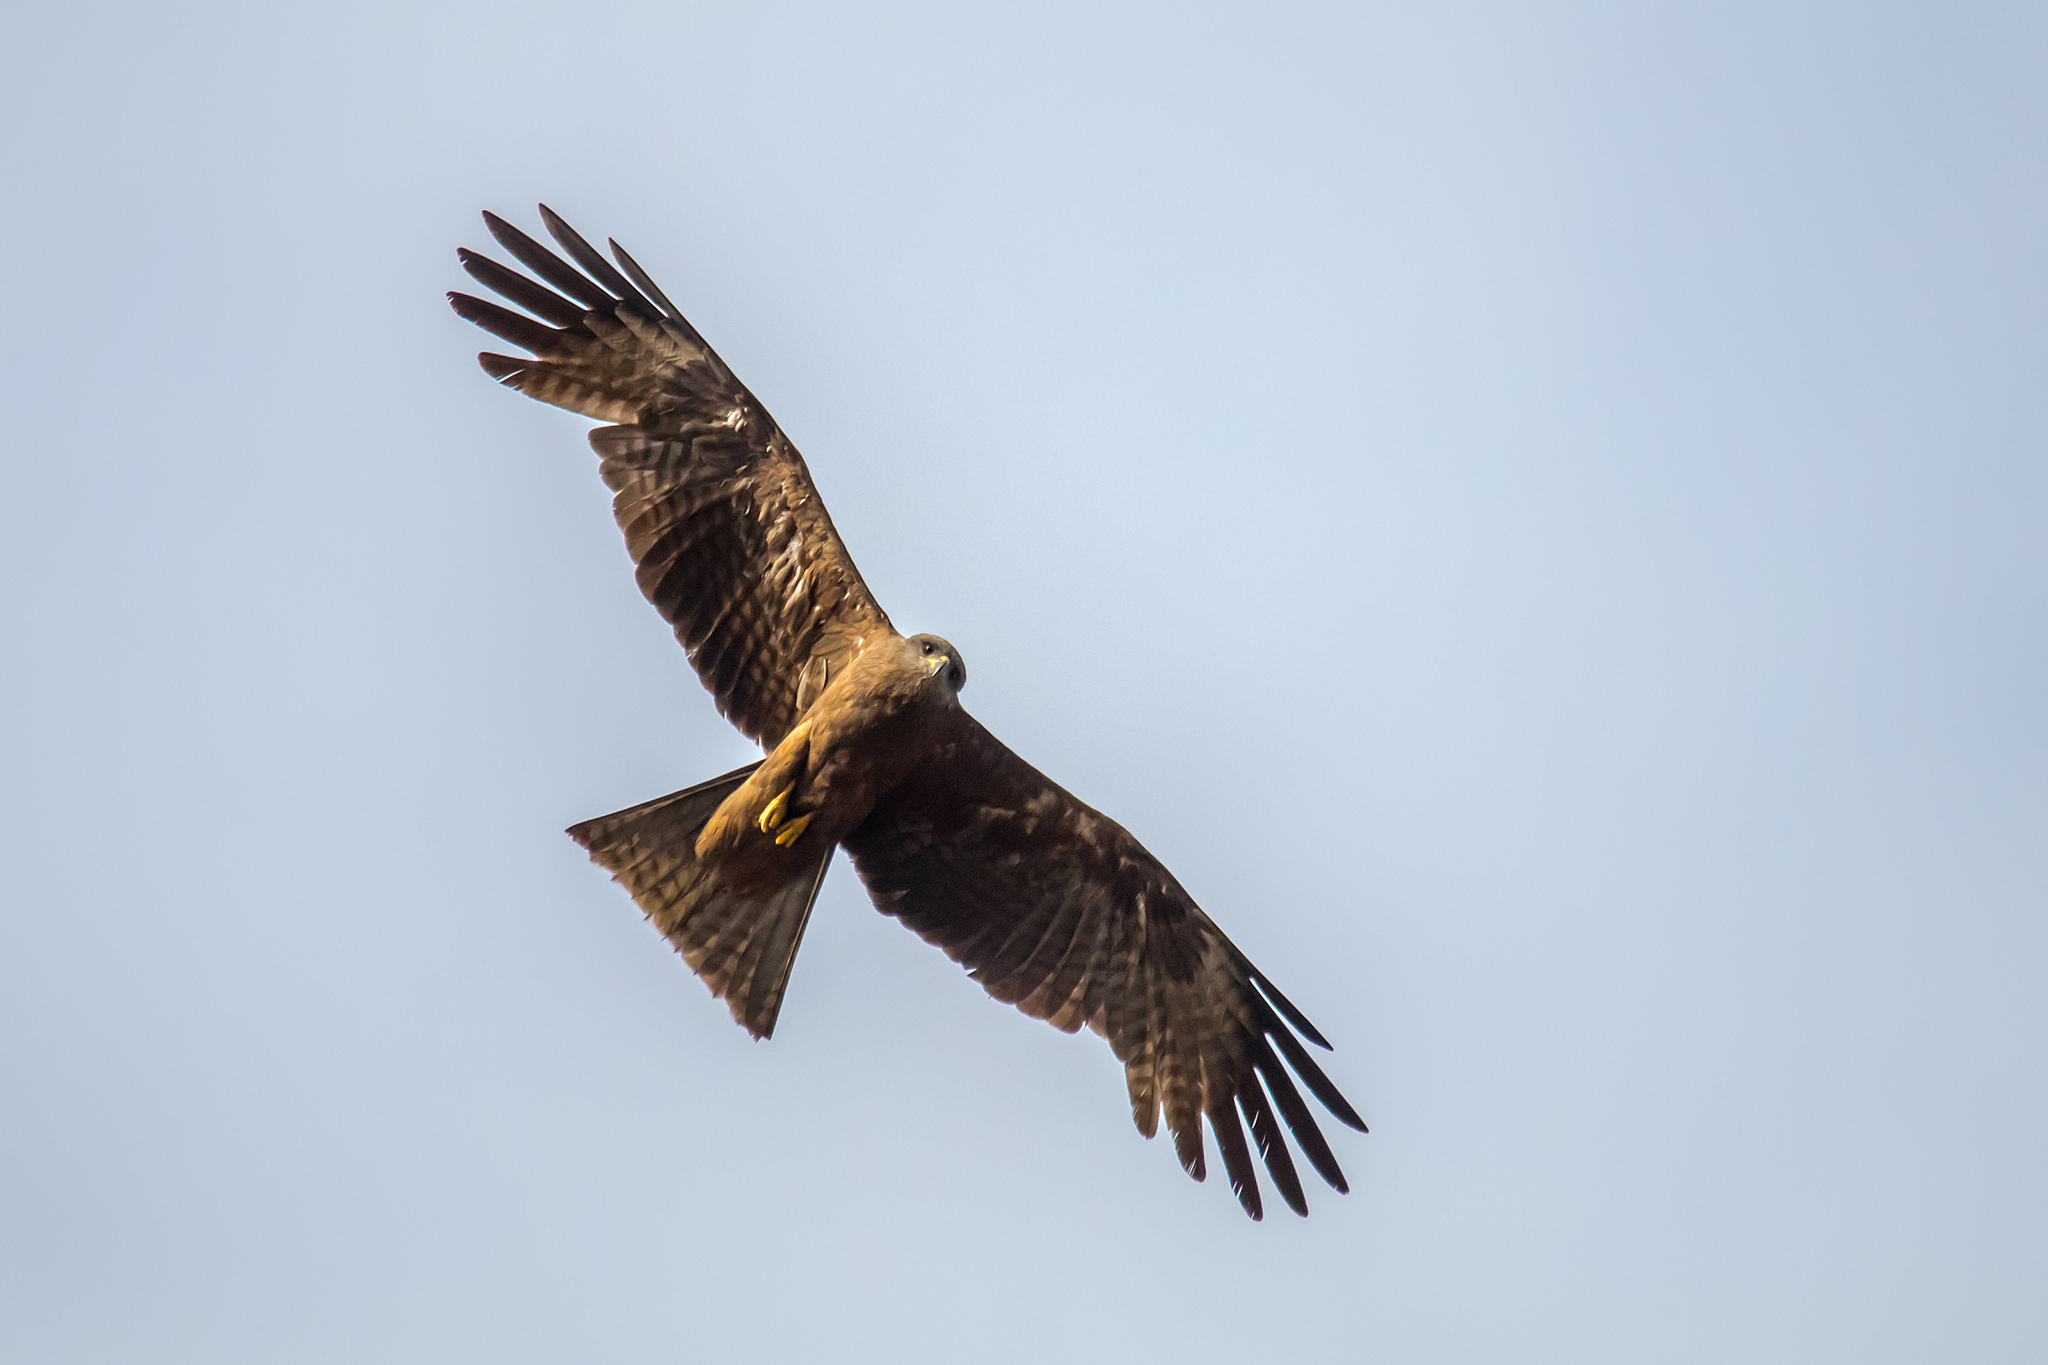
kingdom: Animalia
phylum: Chordata
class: Aves
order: Accipitriformes
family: Accipitridae
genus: Milvus
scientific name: Milvus migrans
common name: Black kite
